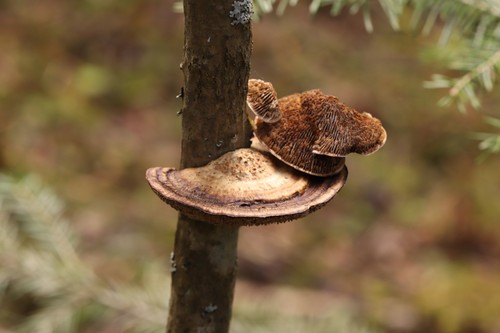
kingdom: Fungi
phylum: Basidiomycota
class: Agaricomycetes
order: Polyporales
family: Polyporaceae
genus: Daedaleopsis
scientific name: Daedaleopsis confragosa
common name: Blushing bracket
